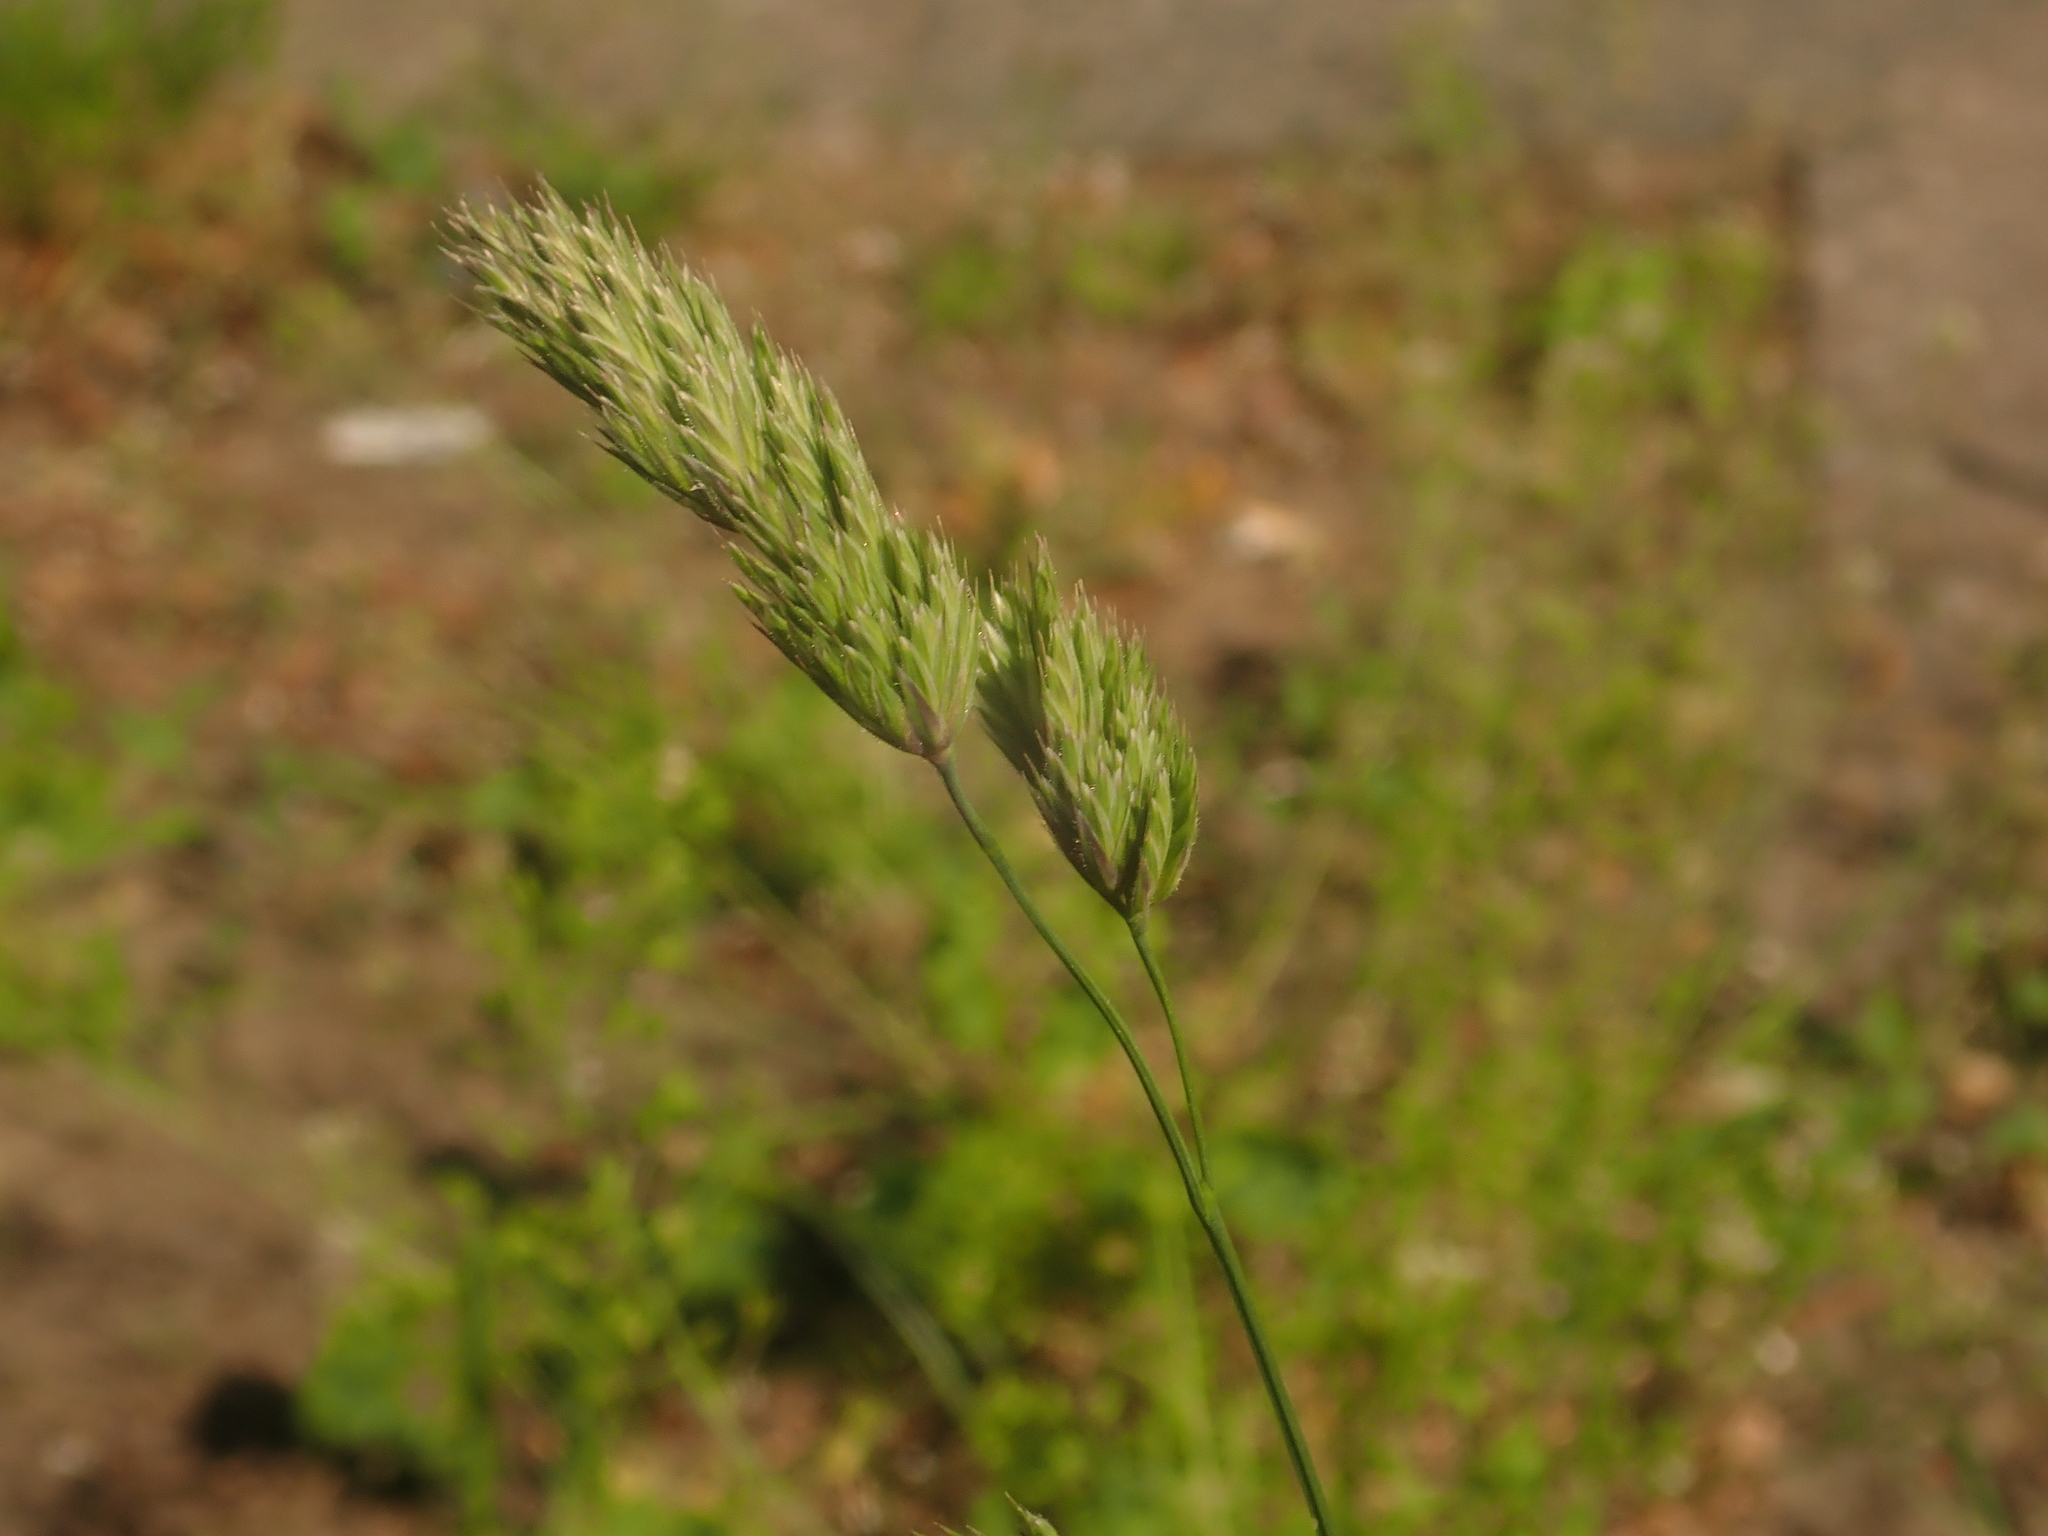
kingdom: Plantae
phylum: Tracheophyta
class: Liliopsida
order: Poales
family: Poaceae
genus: Dactylis
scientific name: Dactylis glomerata
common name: Orchardgrass
